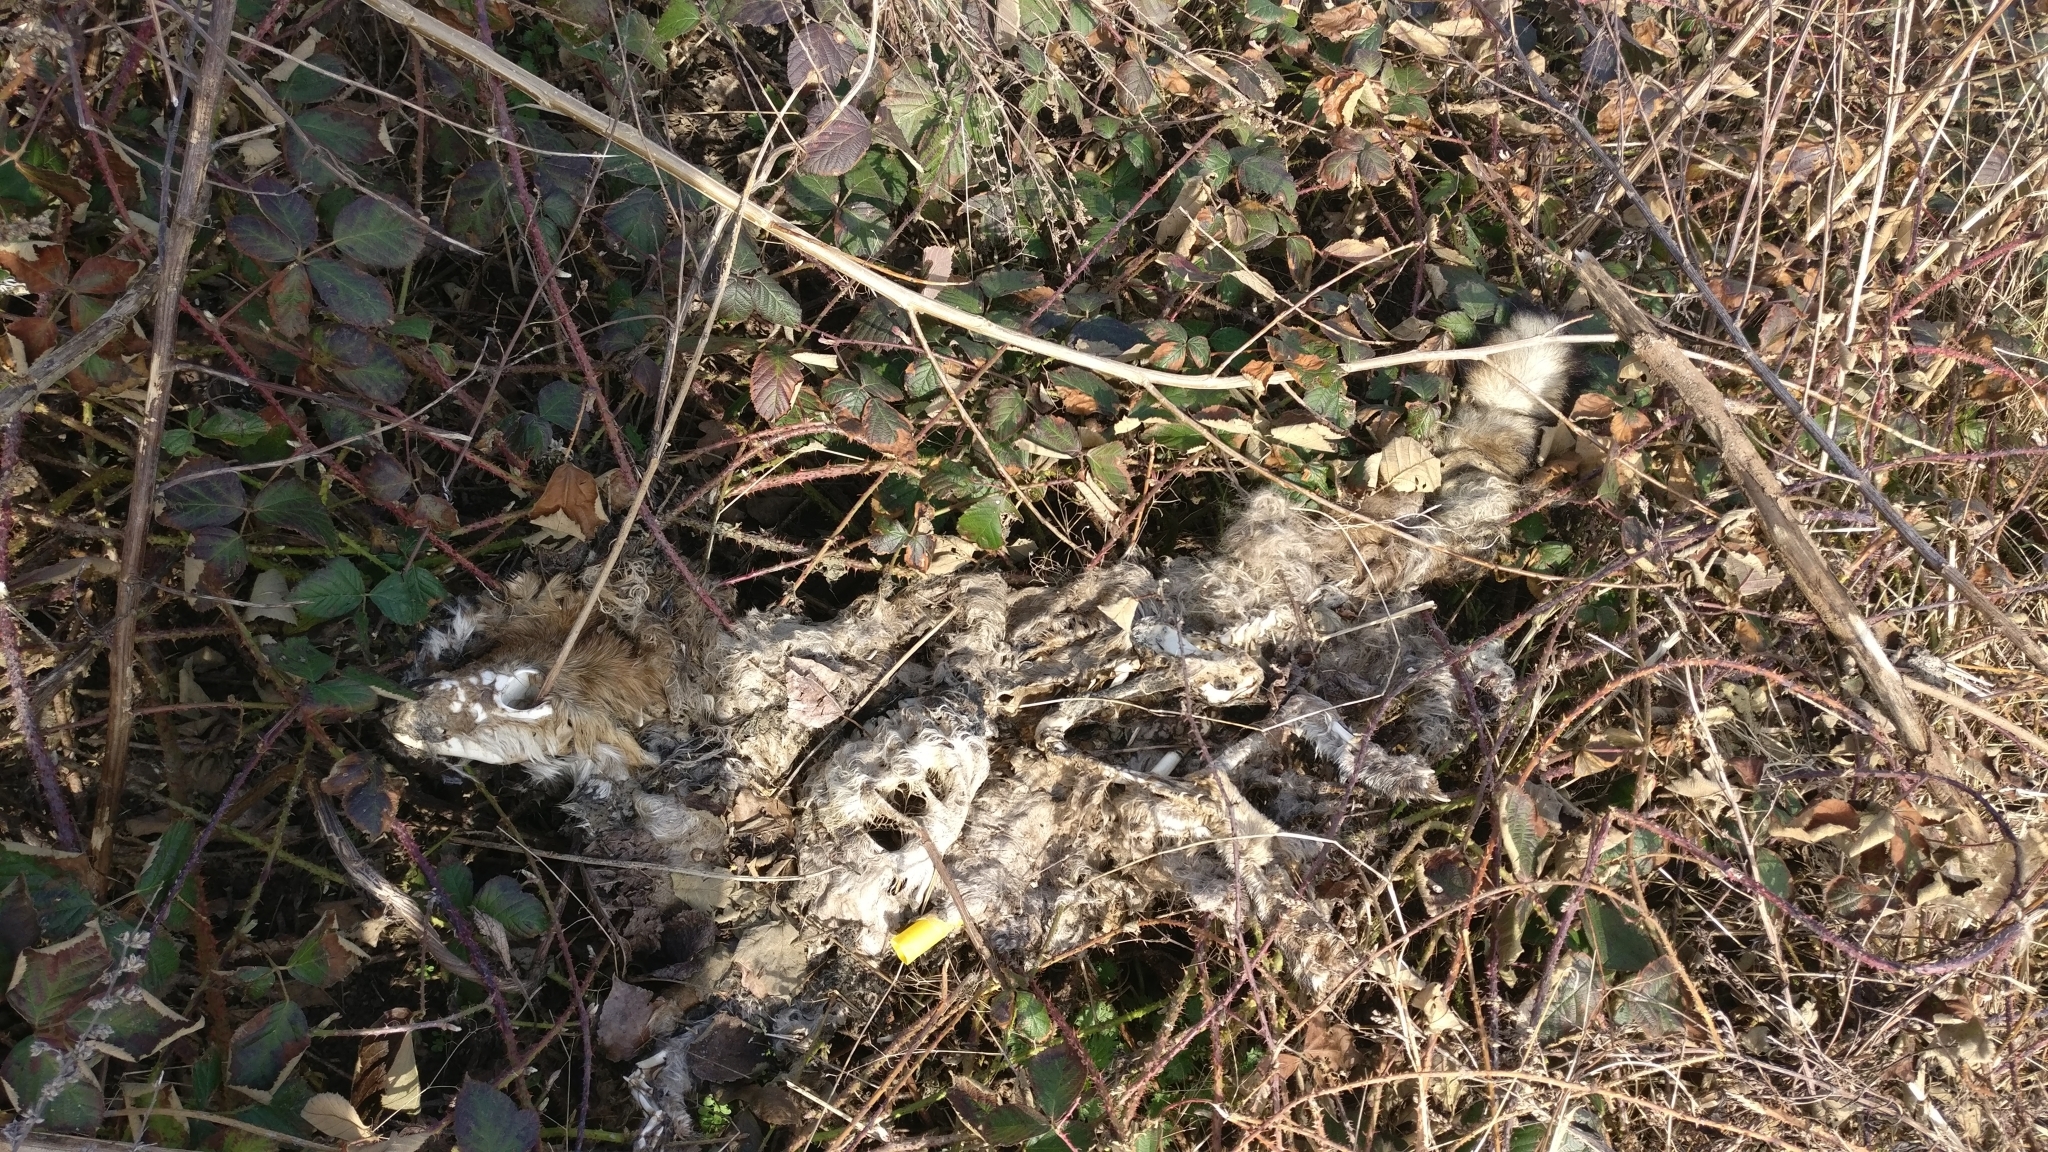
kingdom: Animalia
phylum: Chordata
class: Mammalia
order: Carnivora
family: Canidae
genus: Vulpes
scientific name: Vulpes vulpes
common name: Red fox
